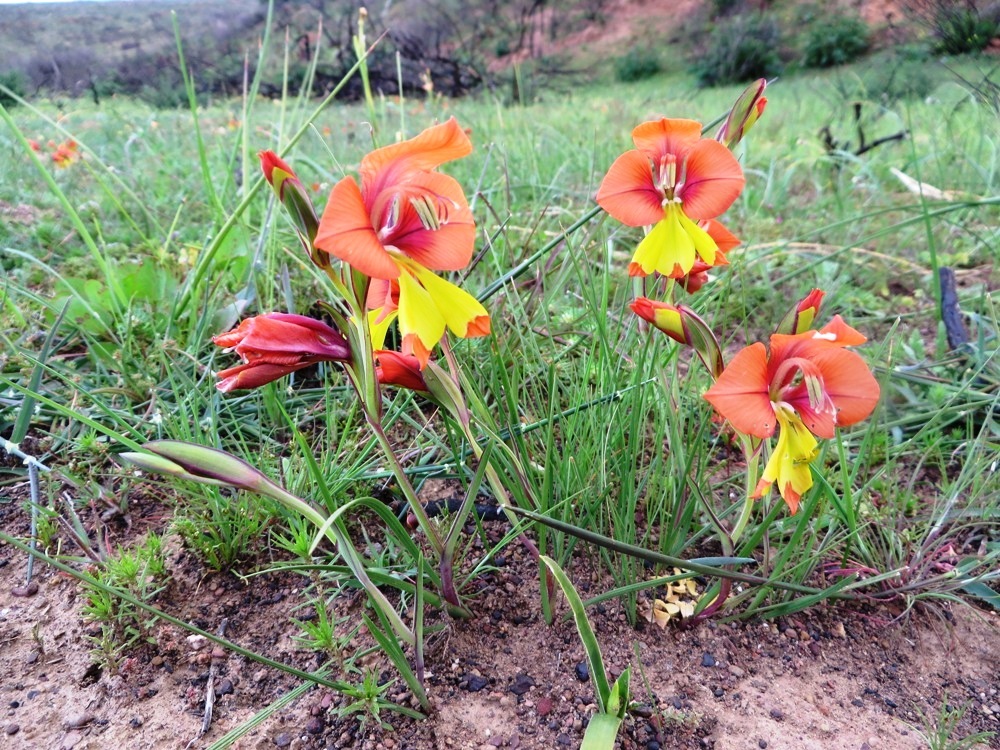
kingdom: Plantae
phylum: Tracheophyta
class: Liliopsida
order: Asparagales
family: Iridaceae
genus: Gladiolus
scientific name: Gladiolus speciosus
